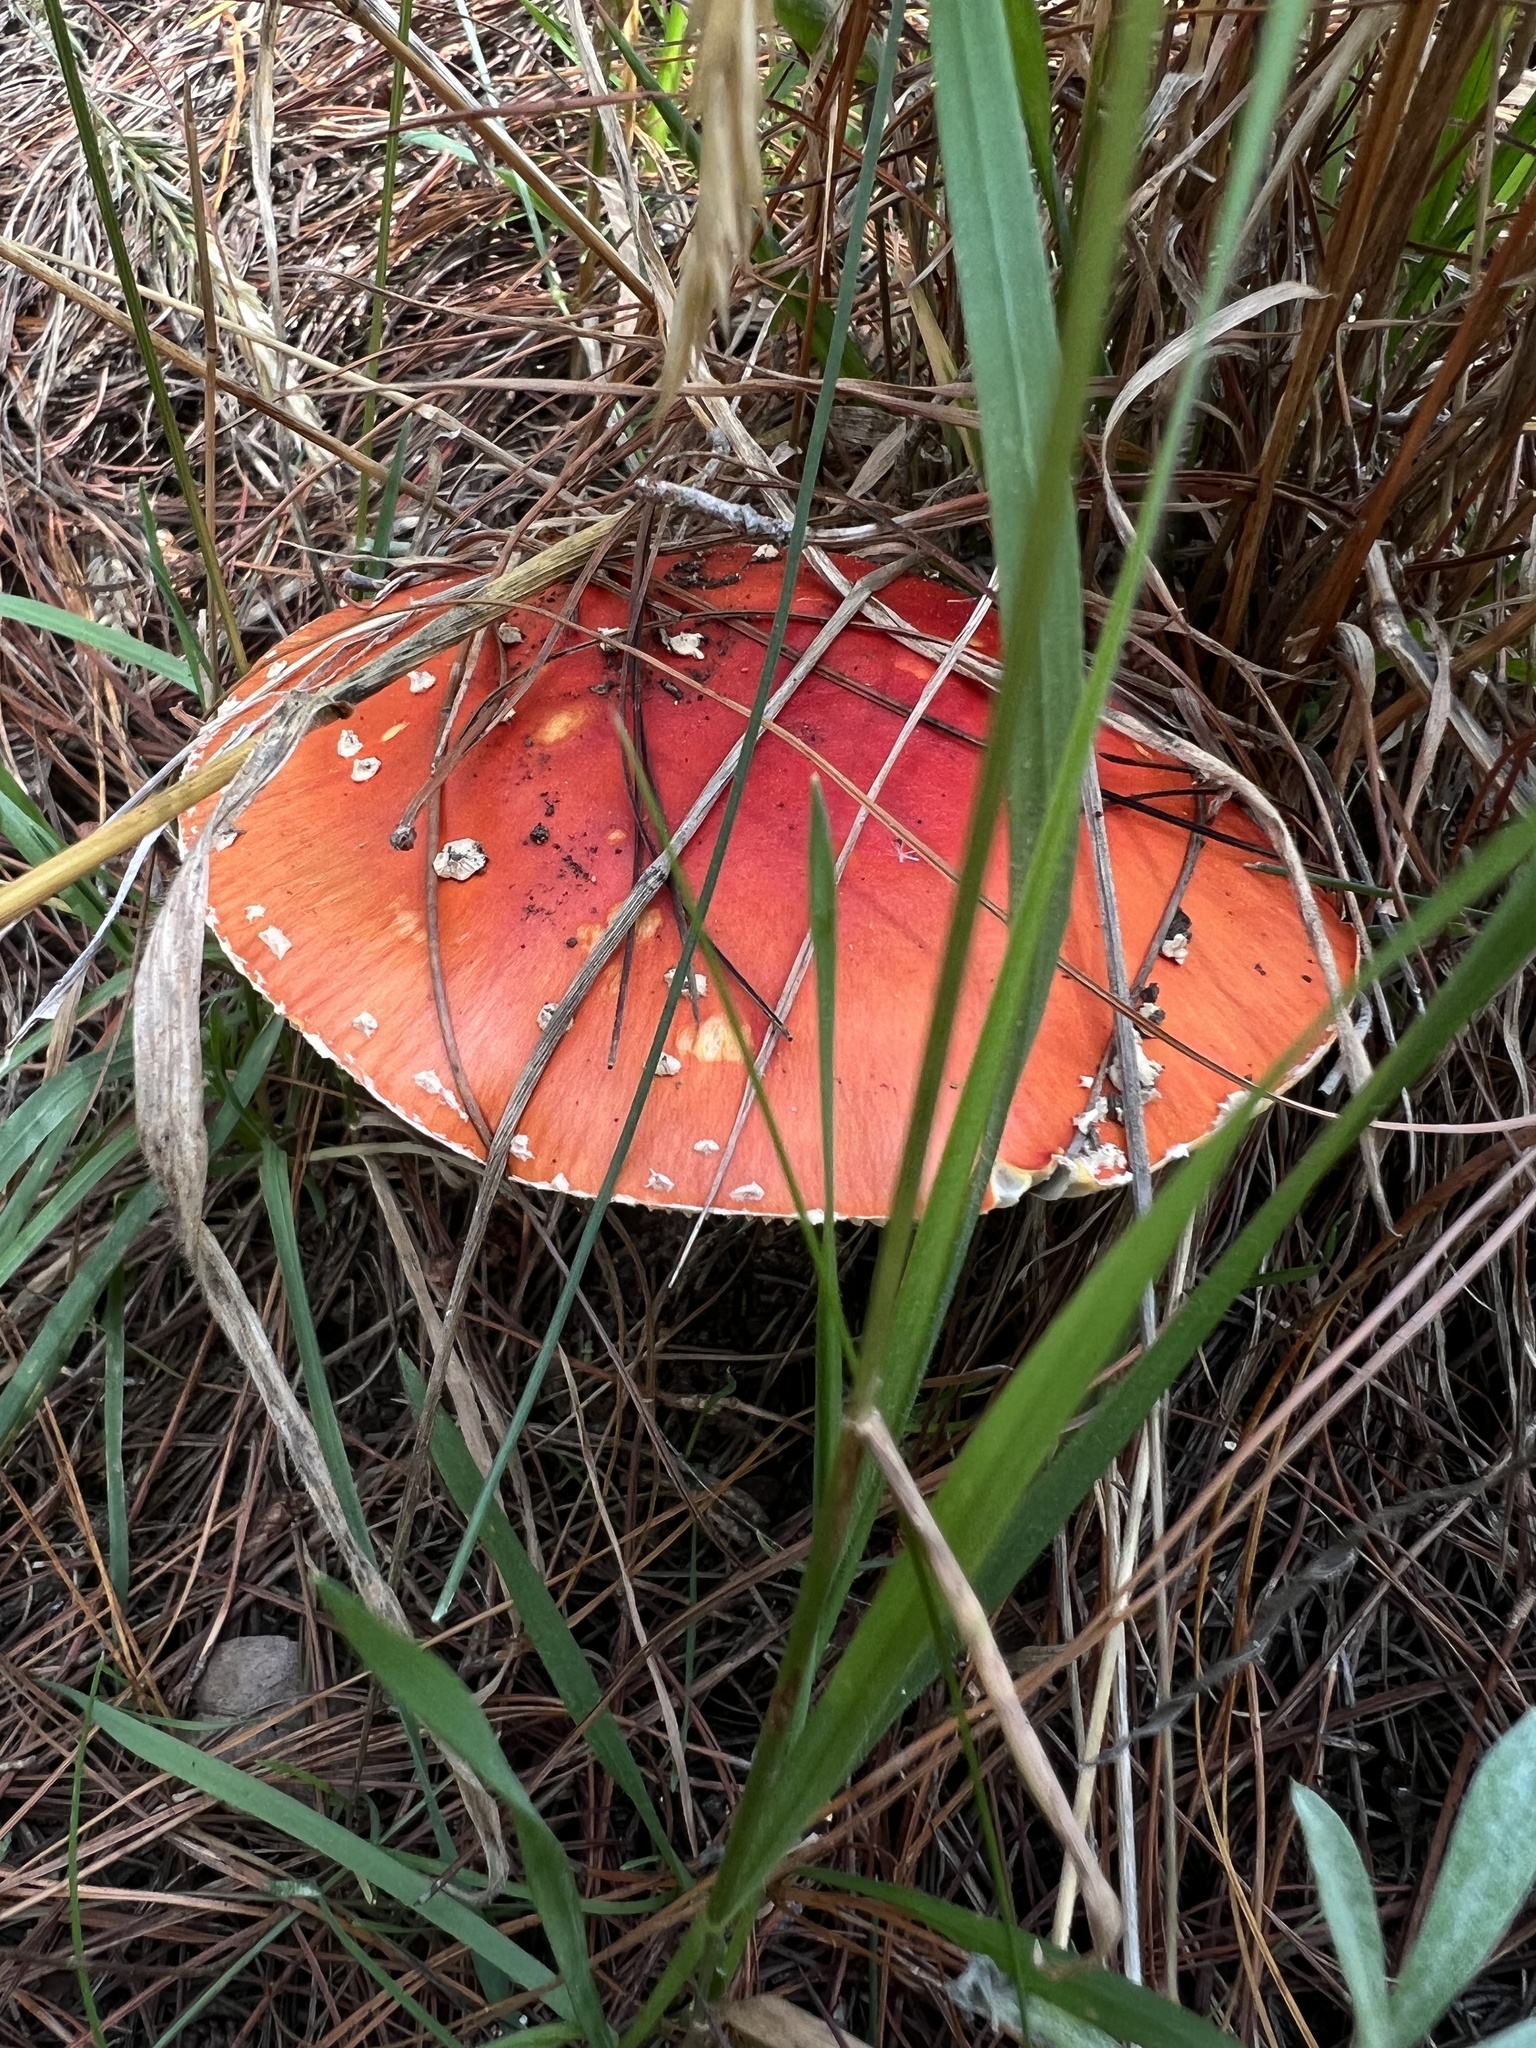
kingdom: Fungi
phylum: Basidiomycota
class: Agaricomycetes
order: Agaricales
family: Amanitaceae
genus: Amanita
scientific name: Amanita muscaria
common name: Fly agaric
